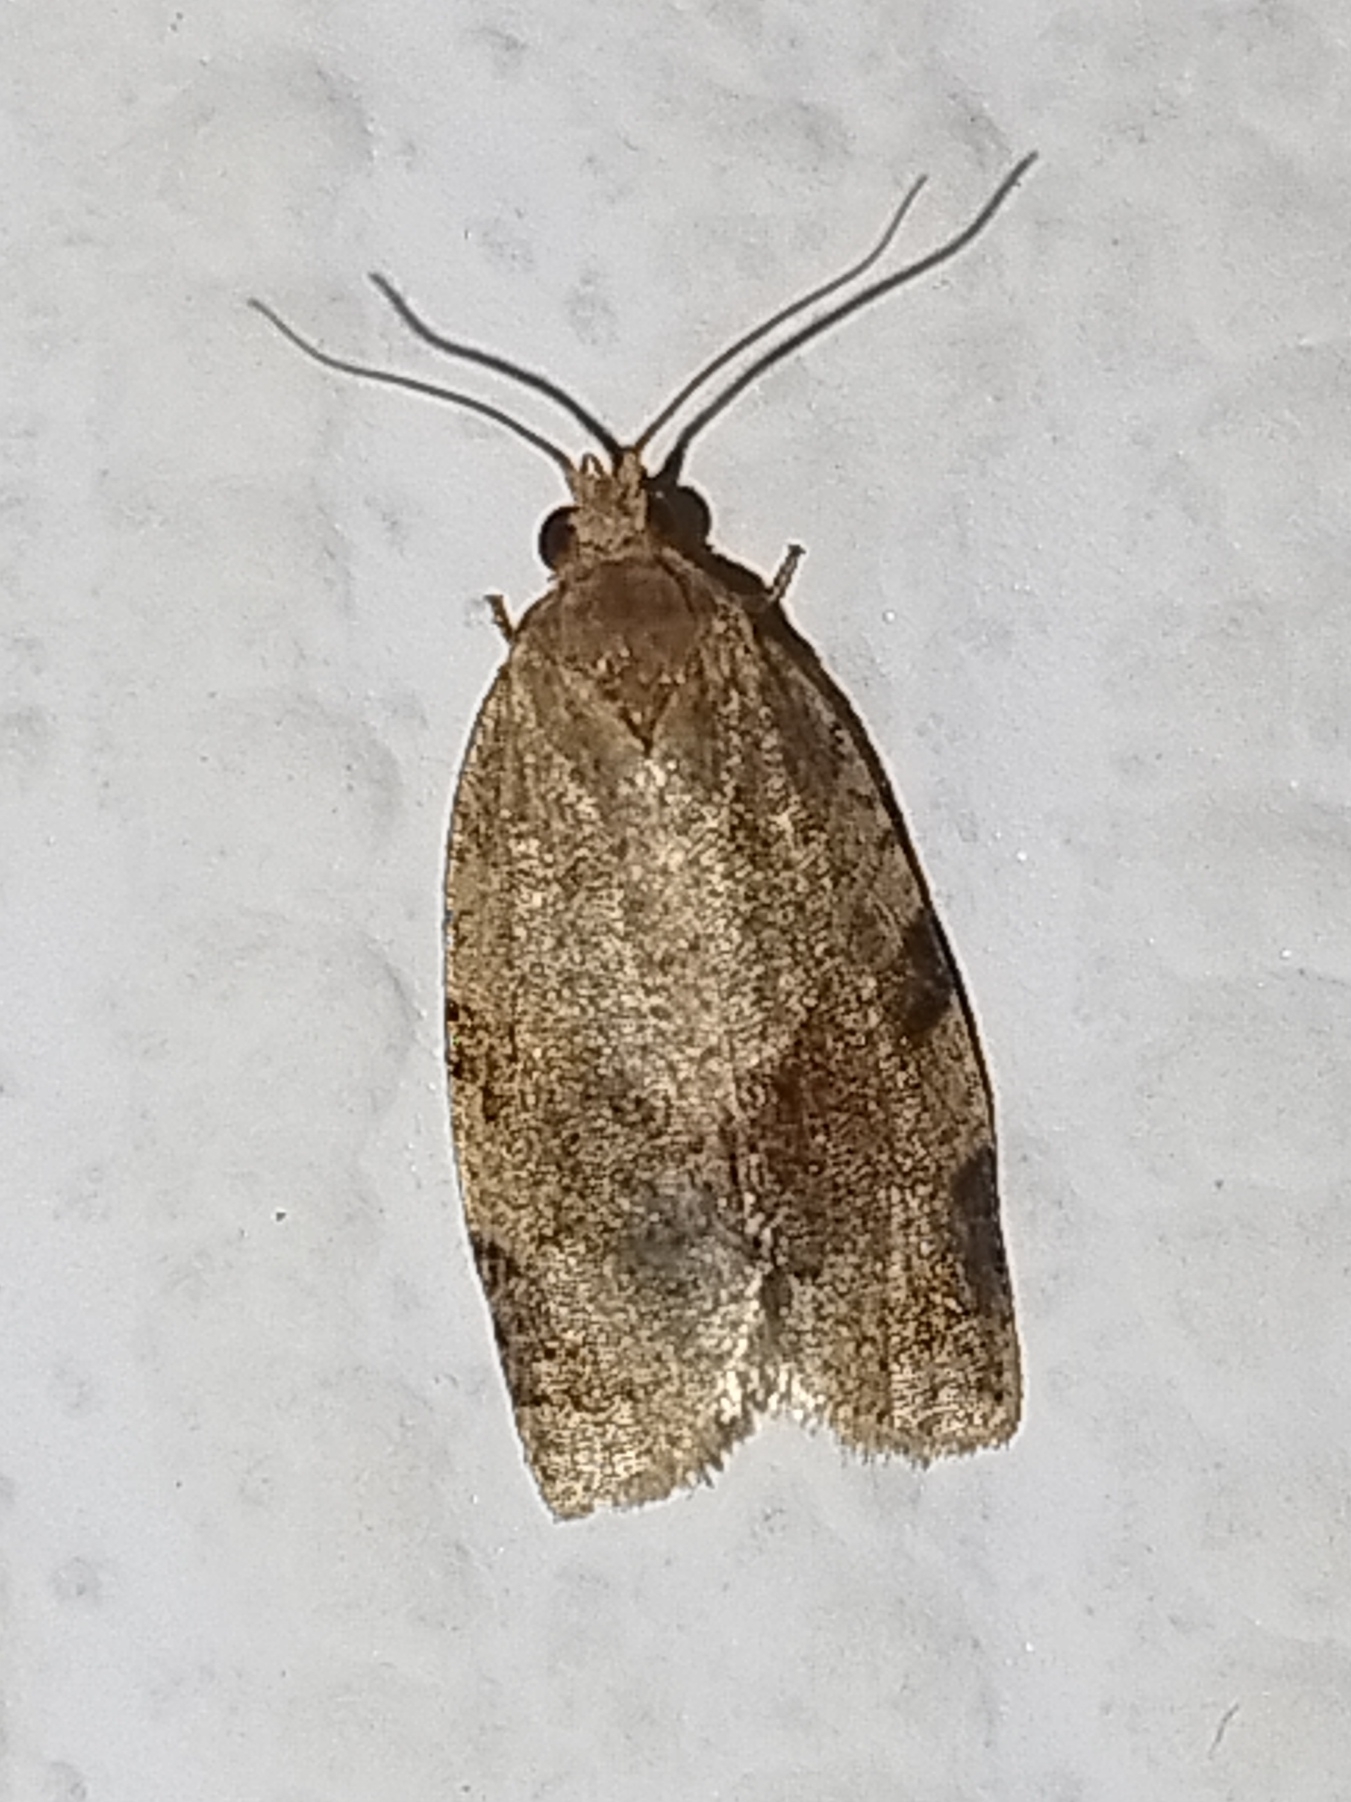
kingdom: Animalia
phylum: Arthropoda
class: Insecta
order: Lepidoptera
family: Tortricidae
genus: Choristoneura
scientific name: Choristoneura diversana
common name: Forest tortrix
